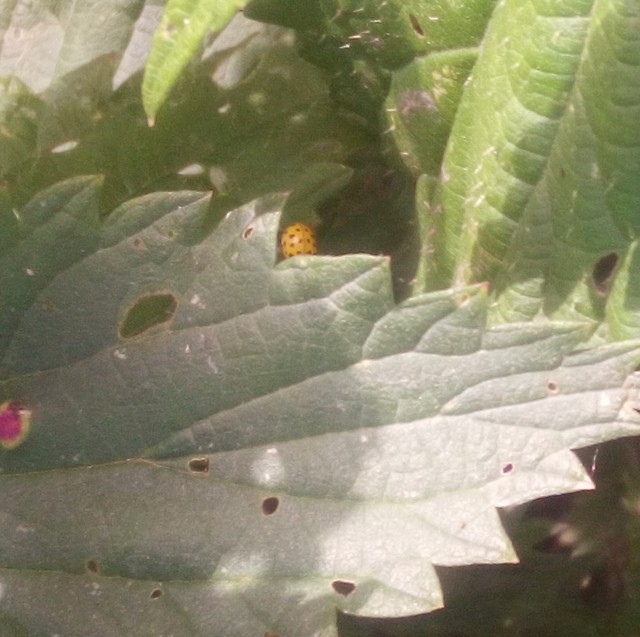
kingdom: Animalia
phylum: Arthropoda
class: Insecta
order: Coleoptera
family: Coccinellidae
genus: Psyllobora
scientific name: Psyllobora vigintiduopunctata
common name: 22-spot ladybird
